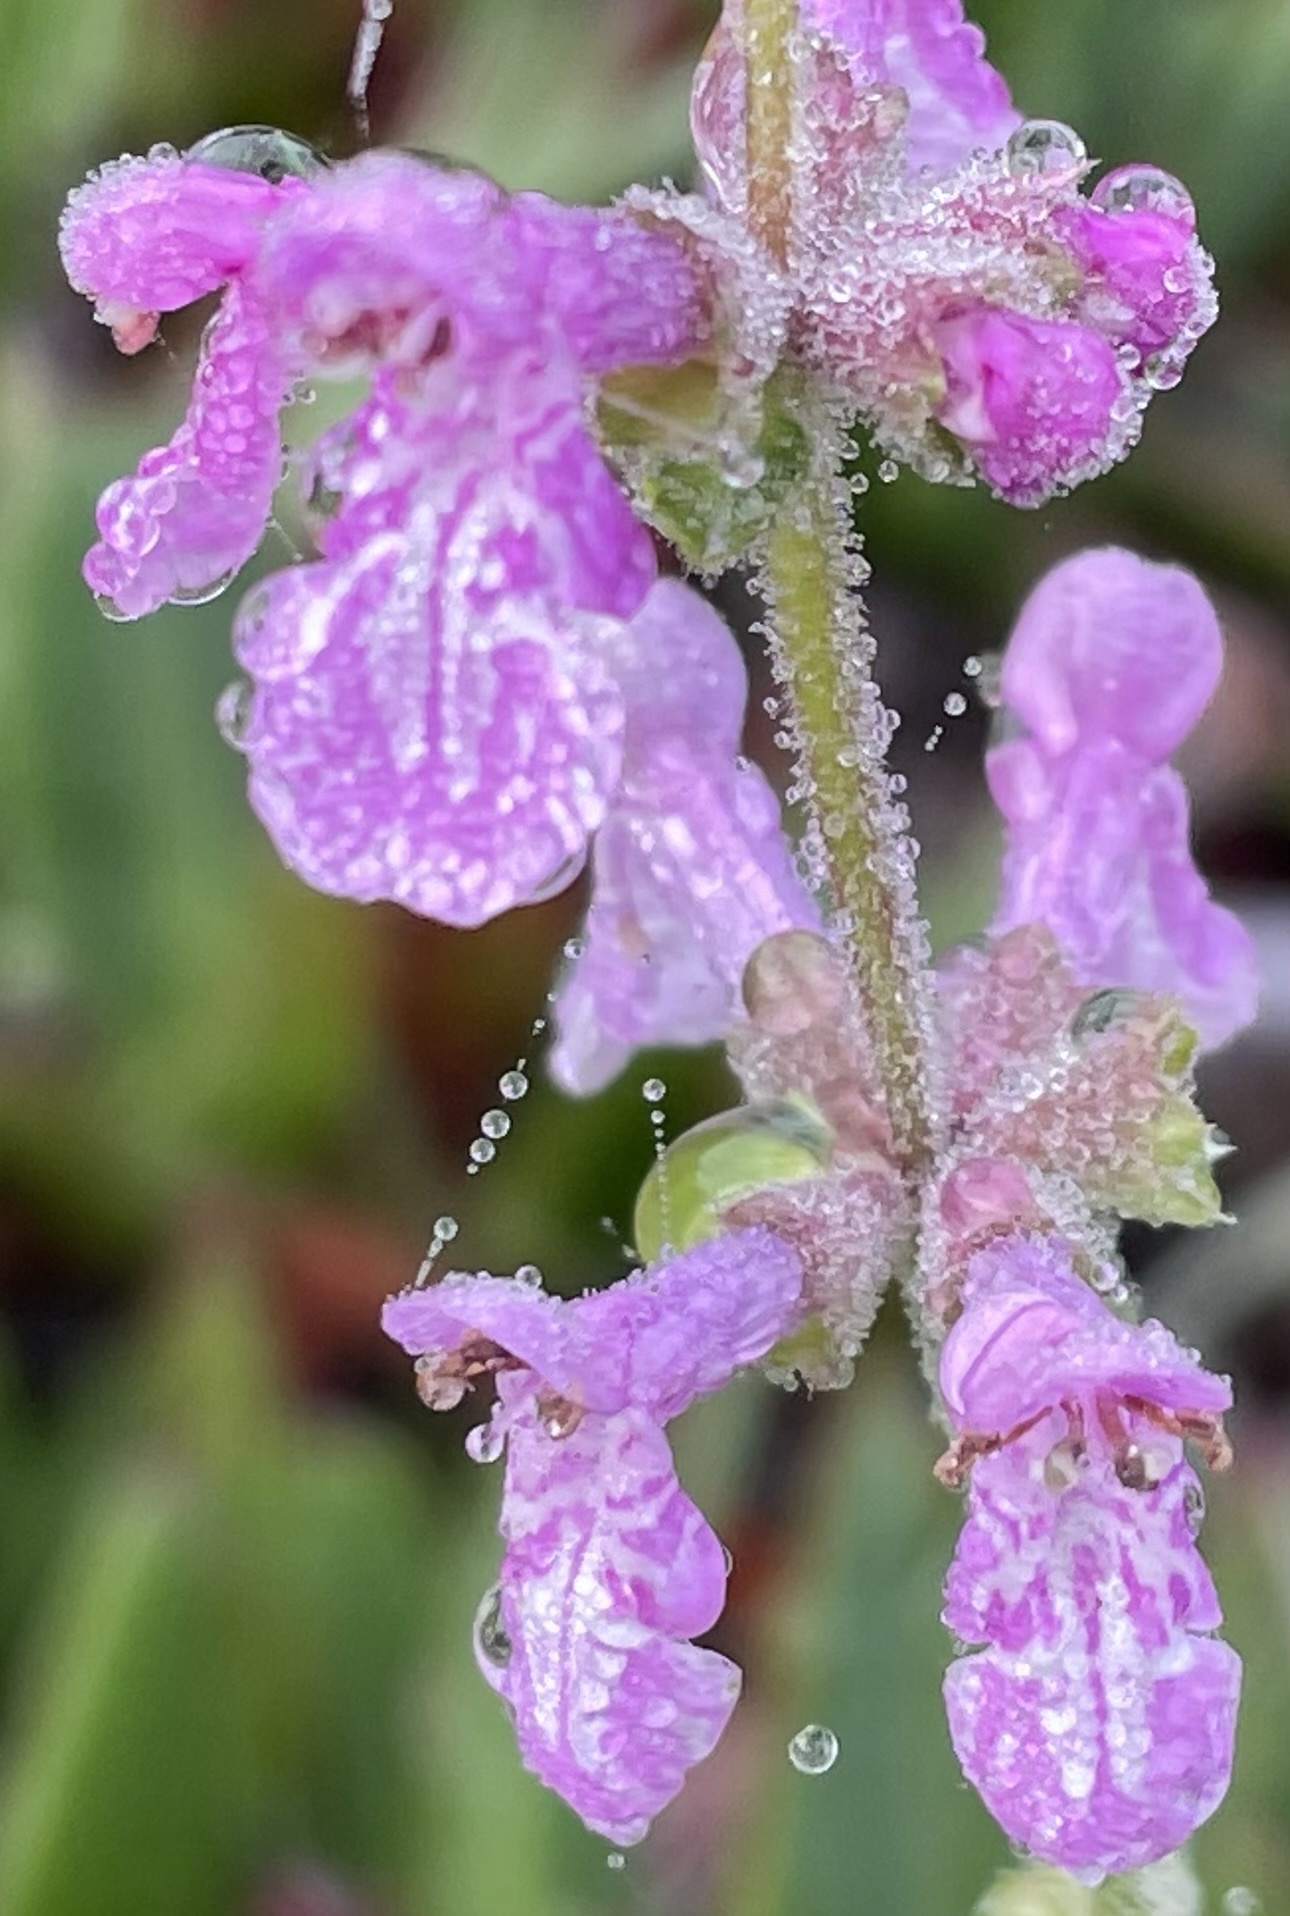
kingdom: Plantae
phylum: Tracheophyta
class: Magnoliopsida
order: Lamiales
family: Lamiaceae
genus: Stachys
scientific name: Stachys bullata
